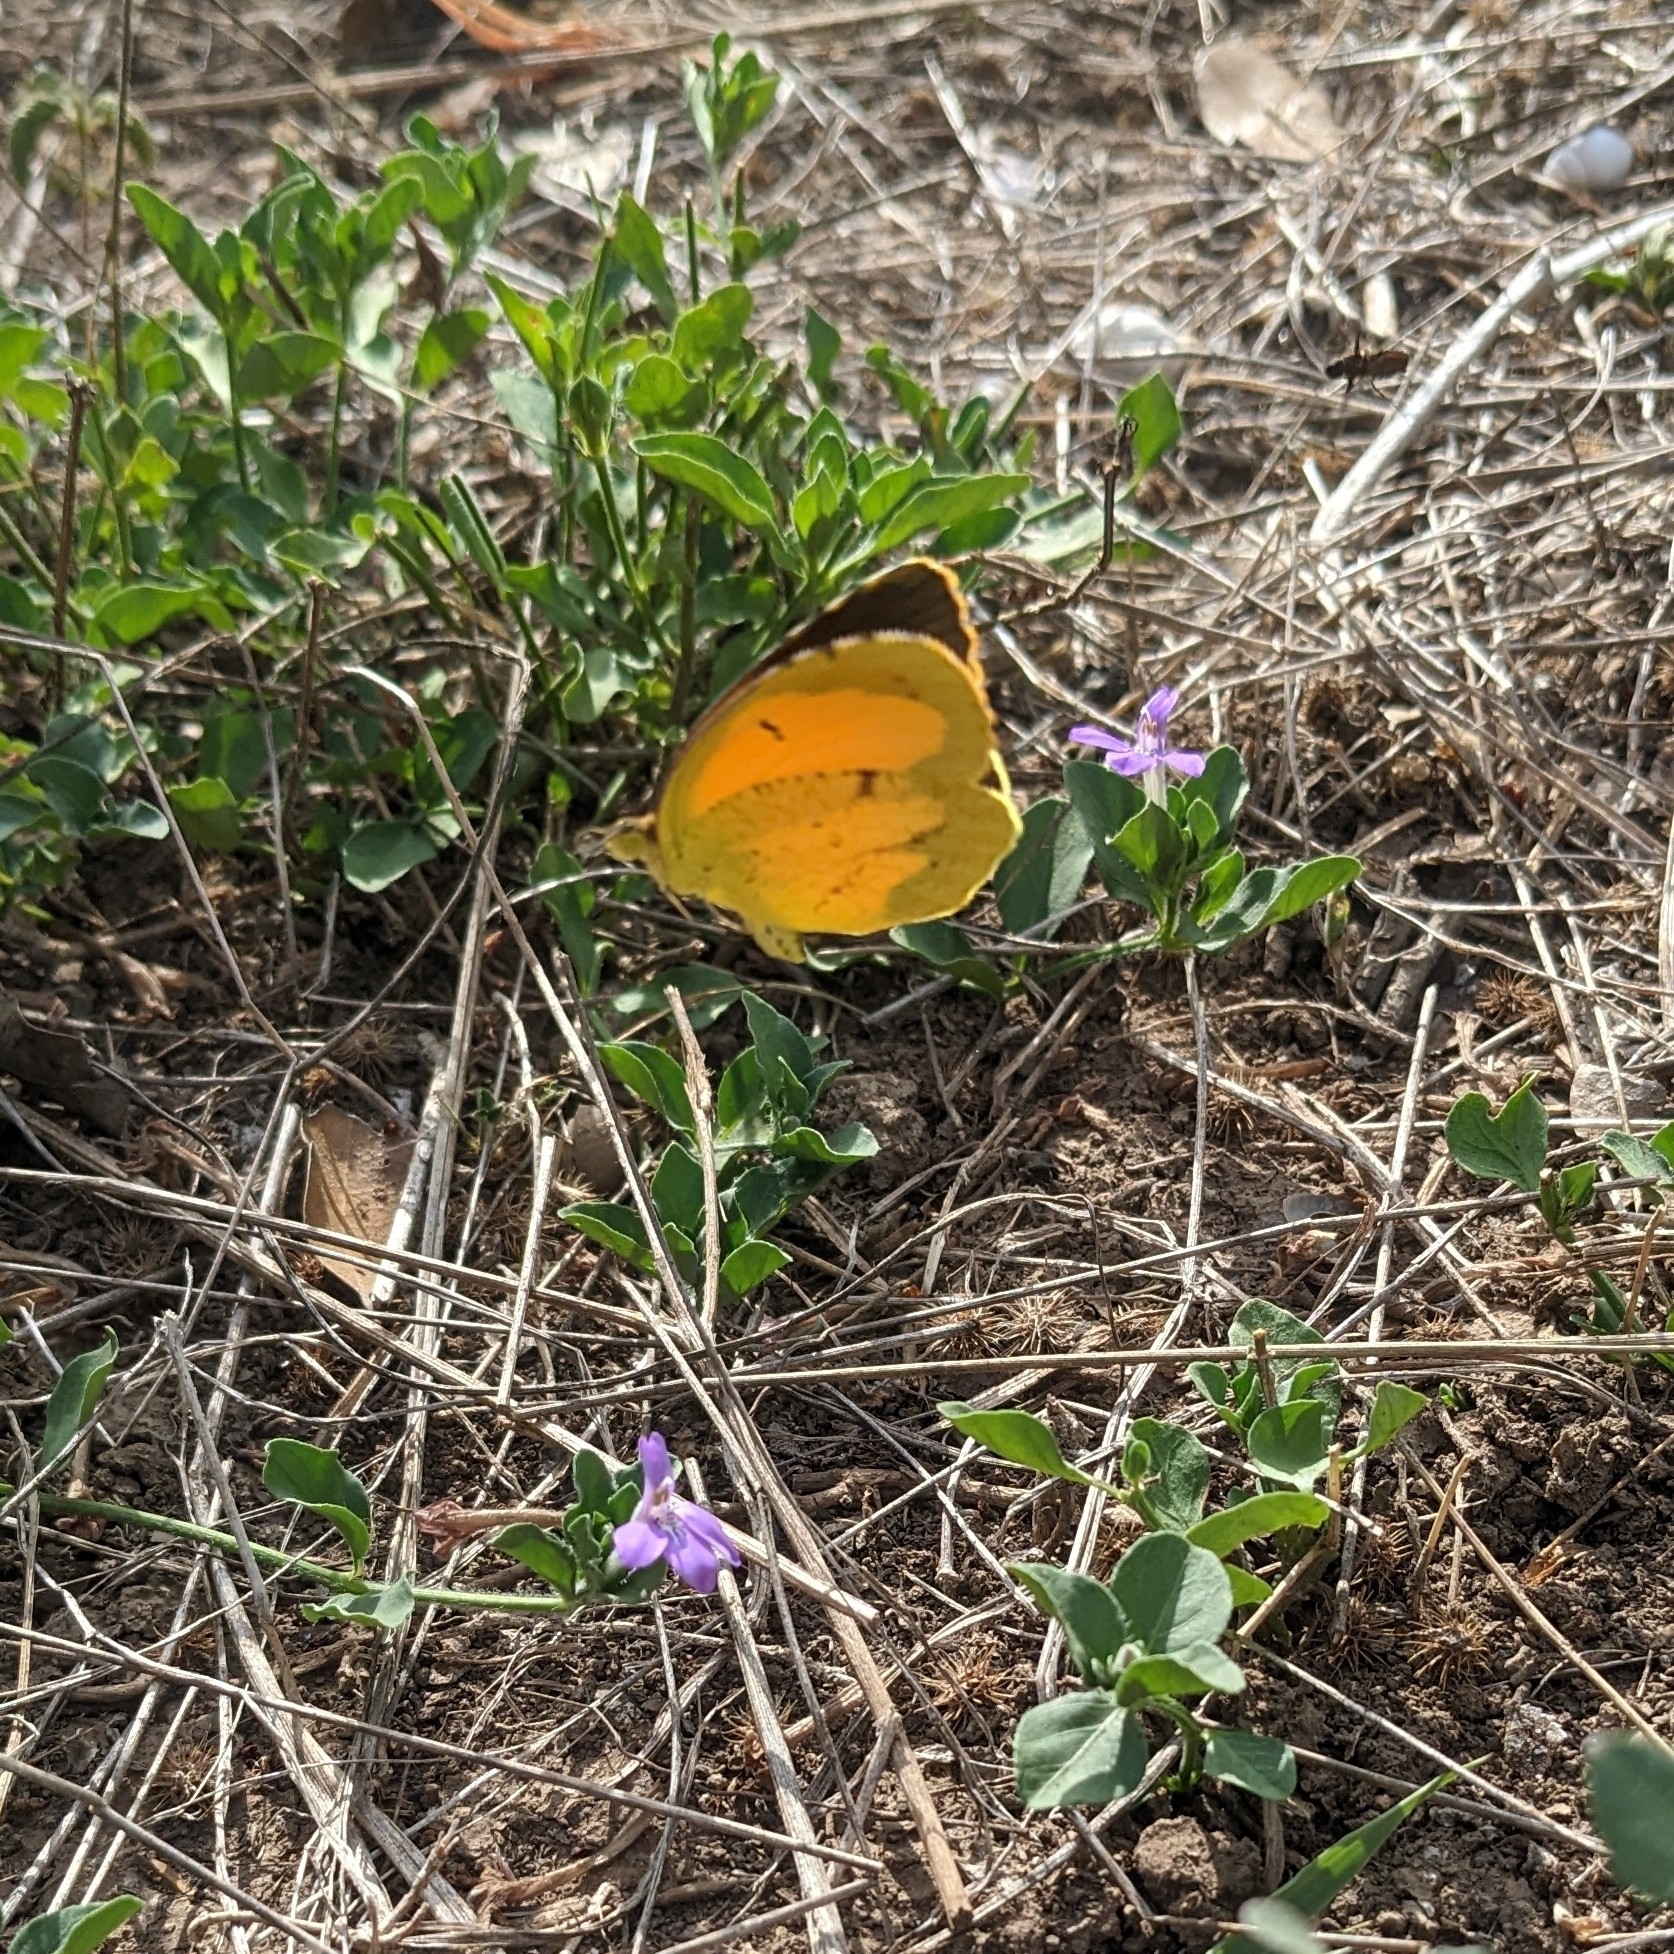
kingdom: Animalia
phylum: Arthropoda
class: Insecta
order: Lepidoptera
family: Pieridae
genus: Abaeis
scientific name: Abaeis nicippe
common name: Sleepy orange
